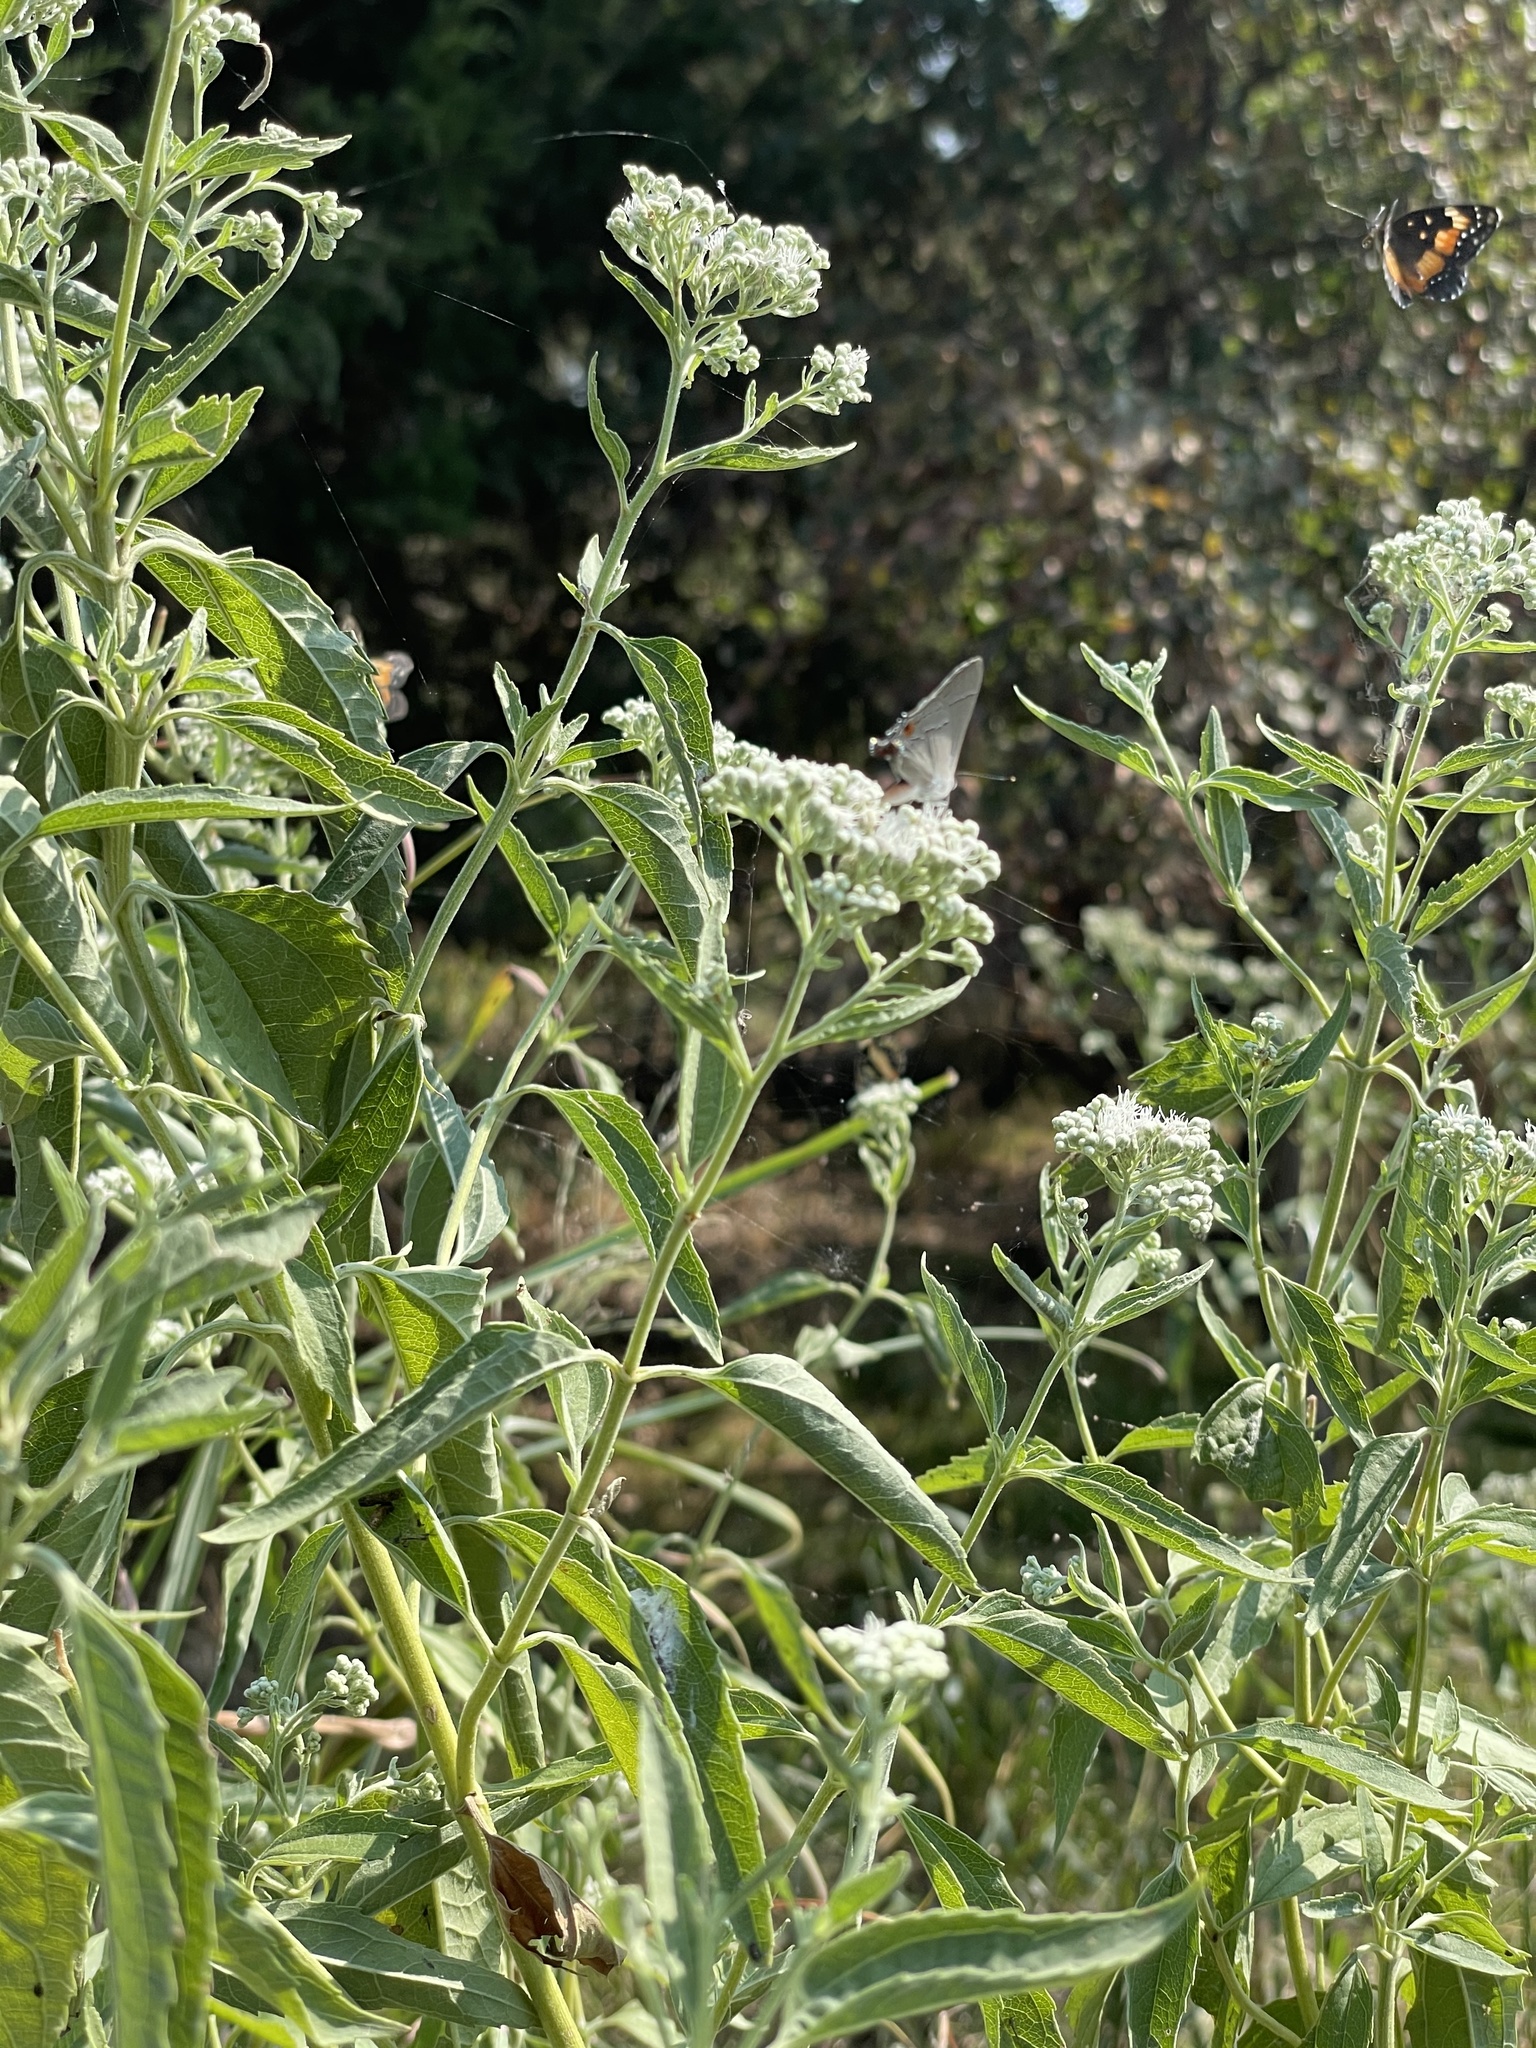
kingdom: Plantae
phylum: Tracheophyta
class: Magnoliopsida
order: Asterales
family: Asteraceae
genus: Eupatorium
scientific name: Eupatorium serotinum
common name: Late boneset
